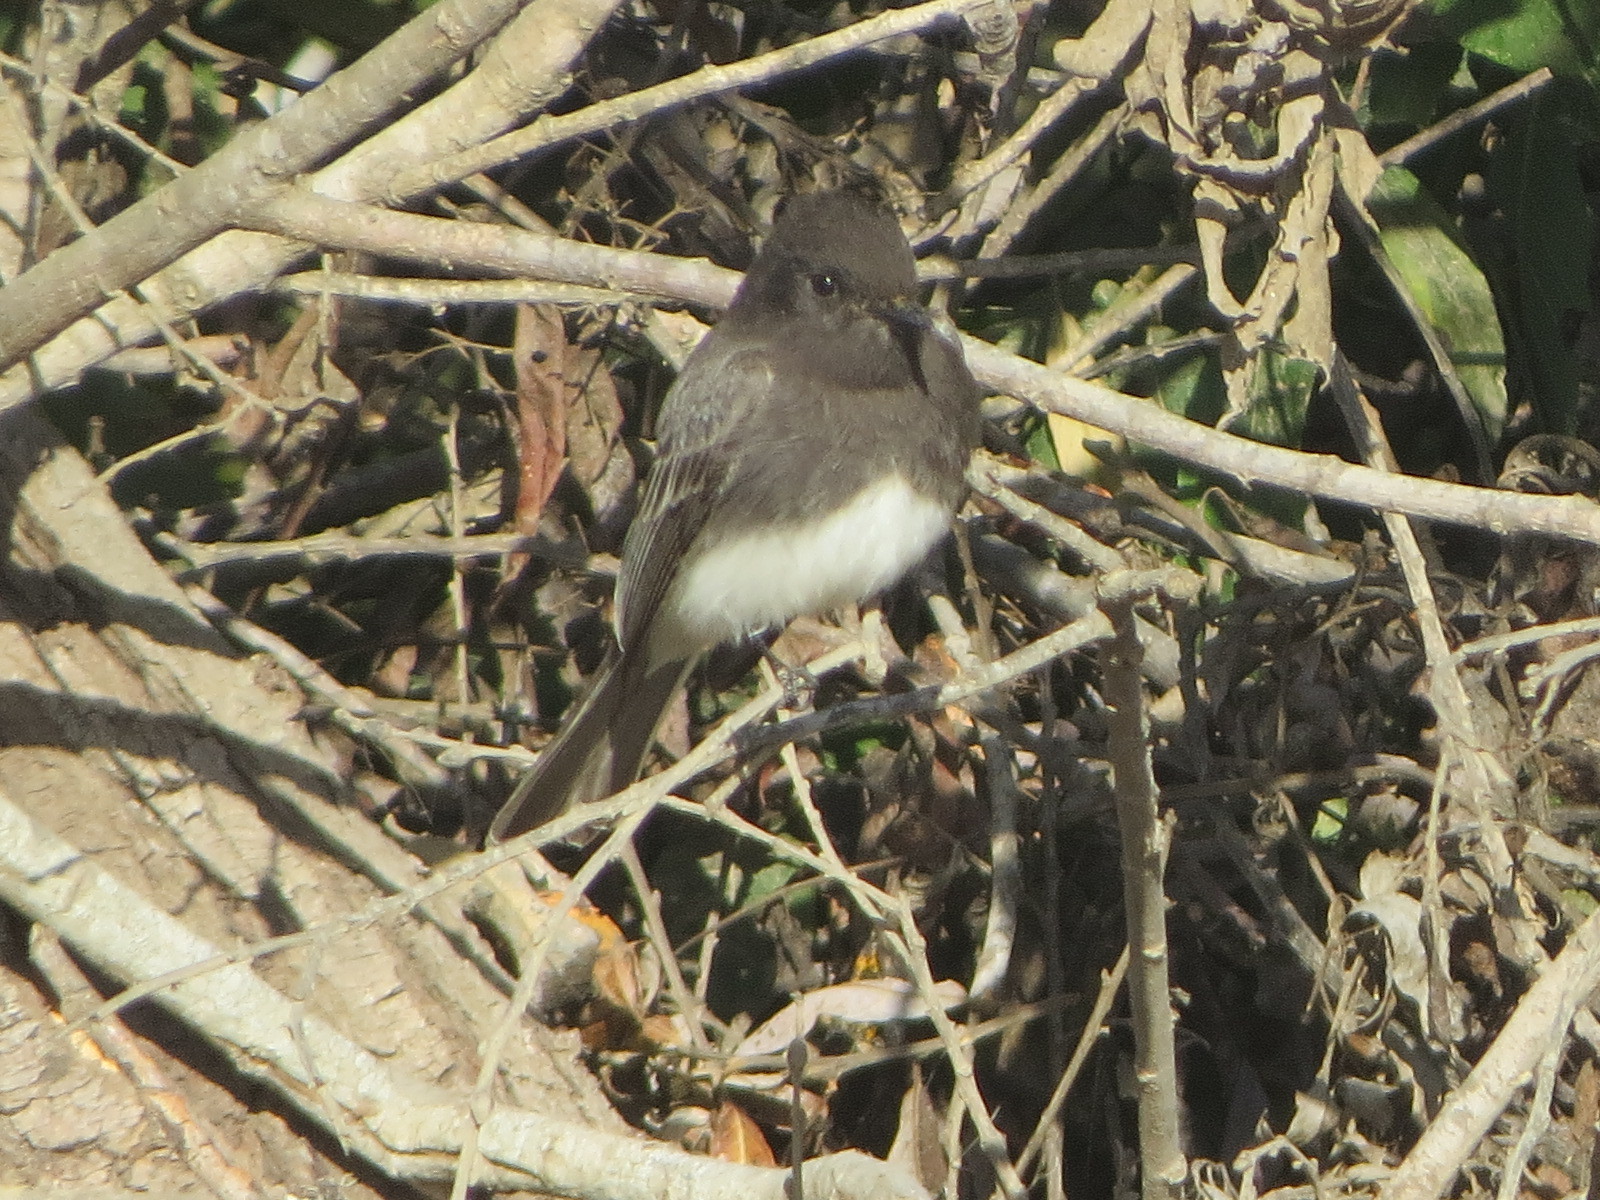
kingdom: Animalia
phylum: Chordata
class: Aves
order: Passeriformes
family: Tyrannidae
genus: Sayornis
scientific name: Sayornis nigricans
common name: Black phoebe
